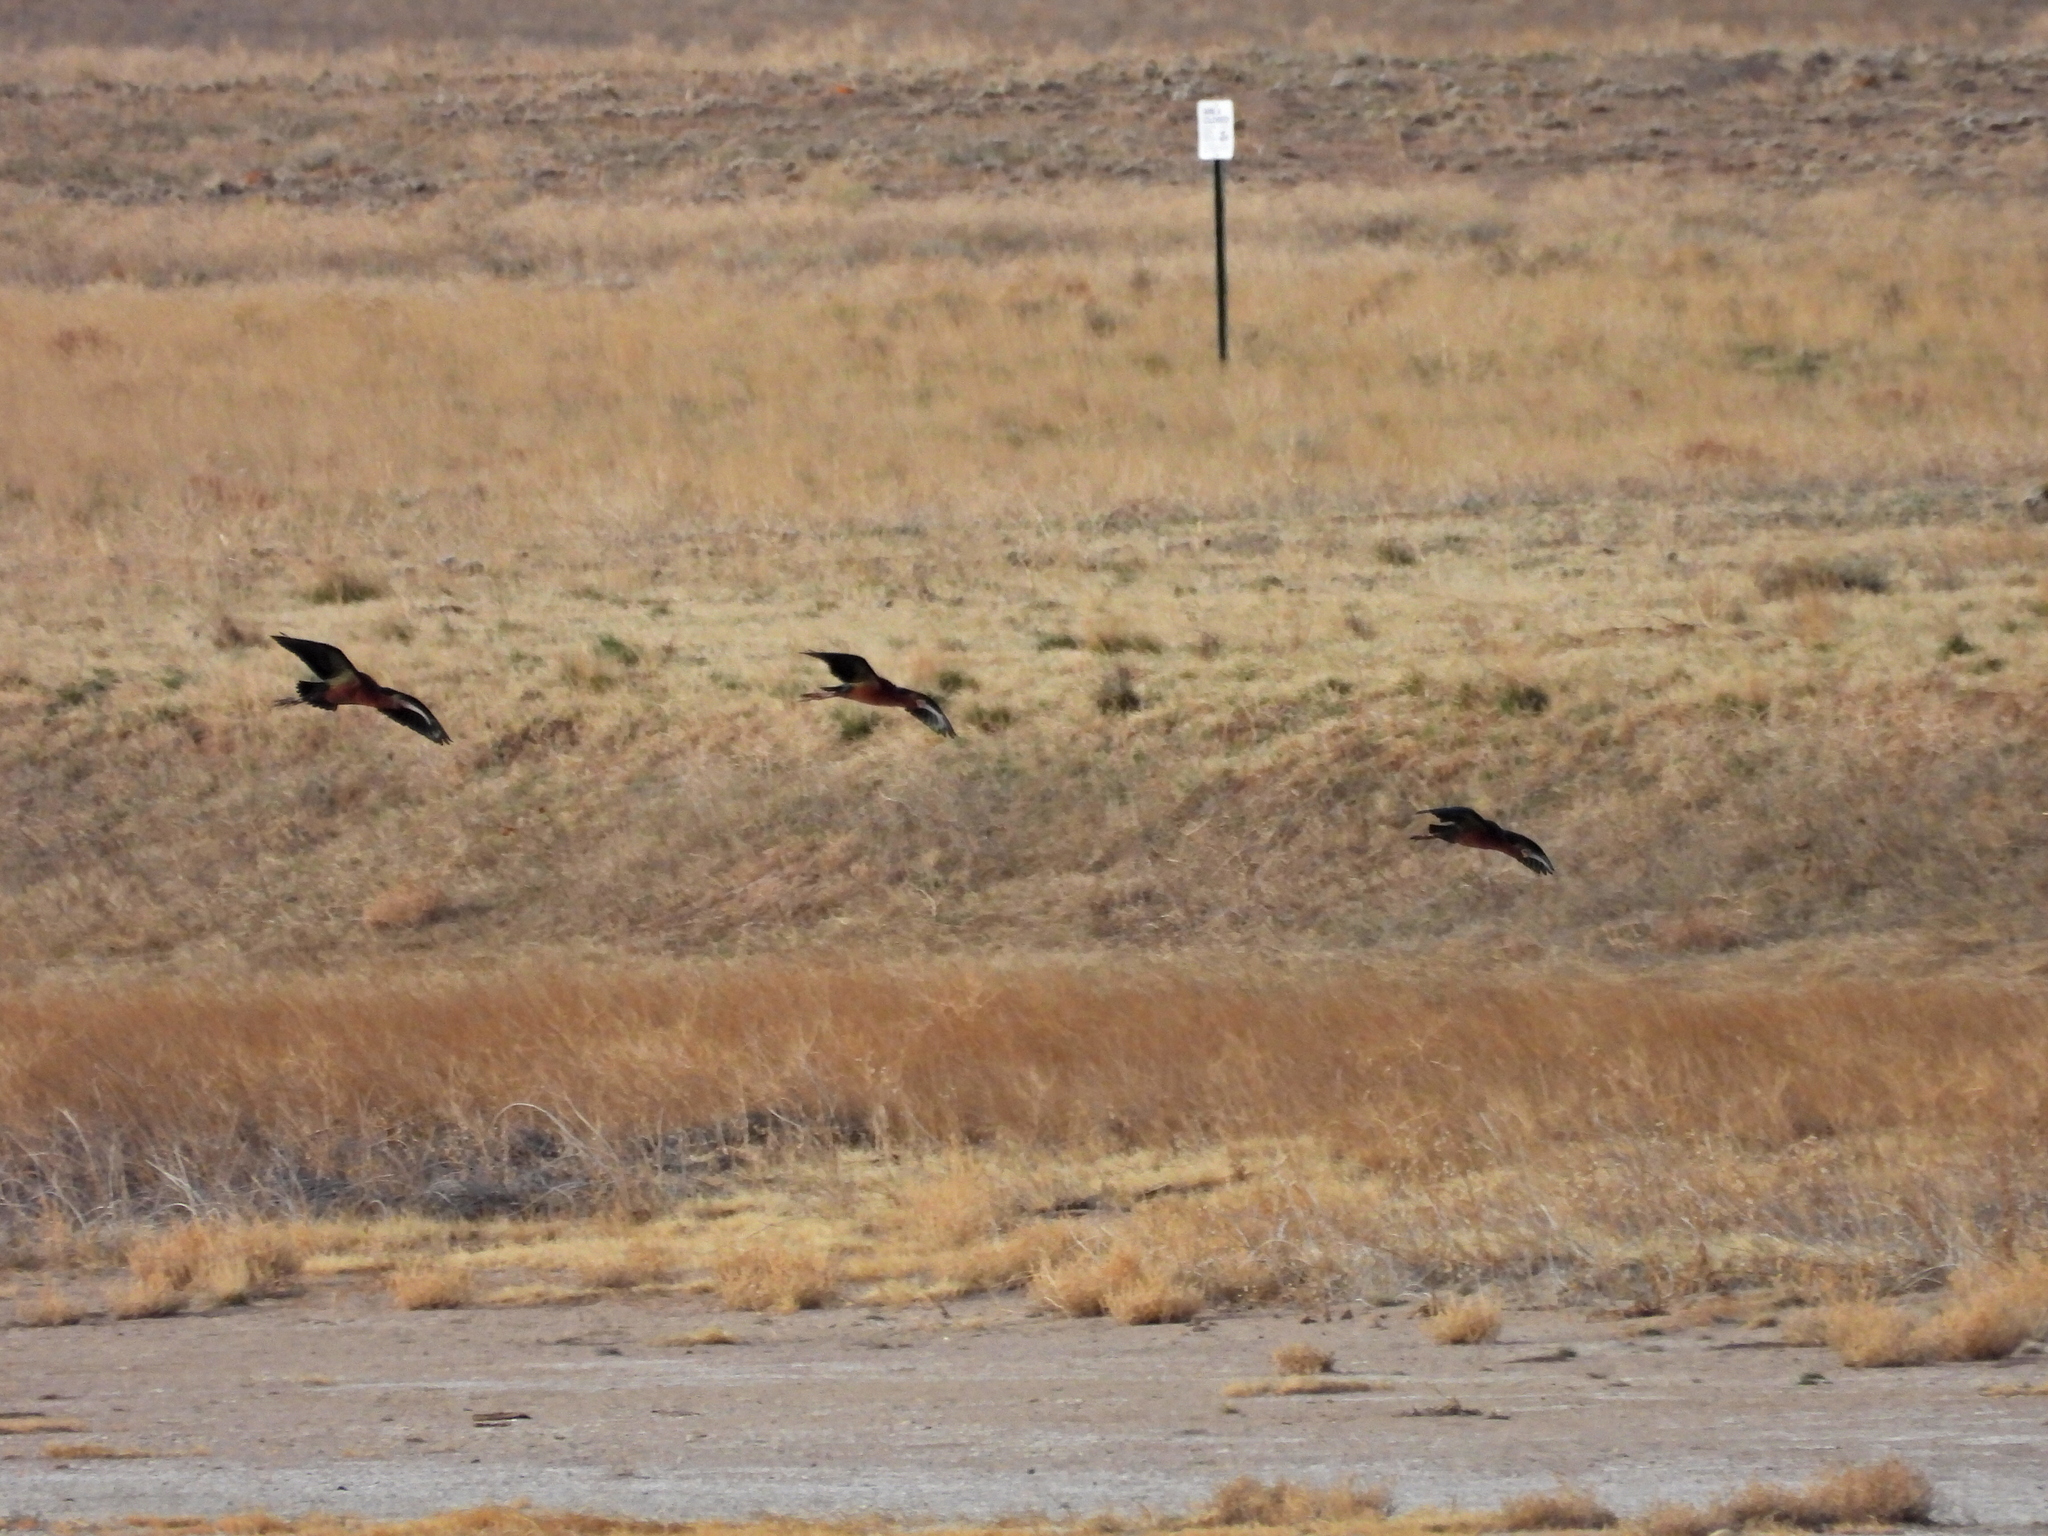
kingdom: Animalia
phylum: Chordata
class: Aves
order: Pelecaniformes
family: Threskiornithidae
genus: Plegadis
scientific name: Plegadis chihi
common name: White-faced ibis
